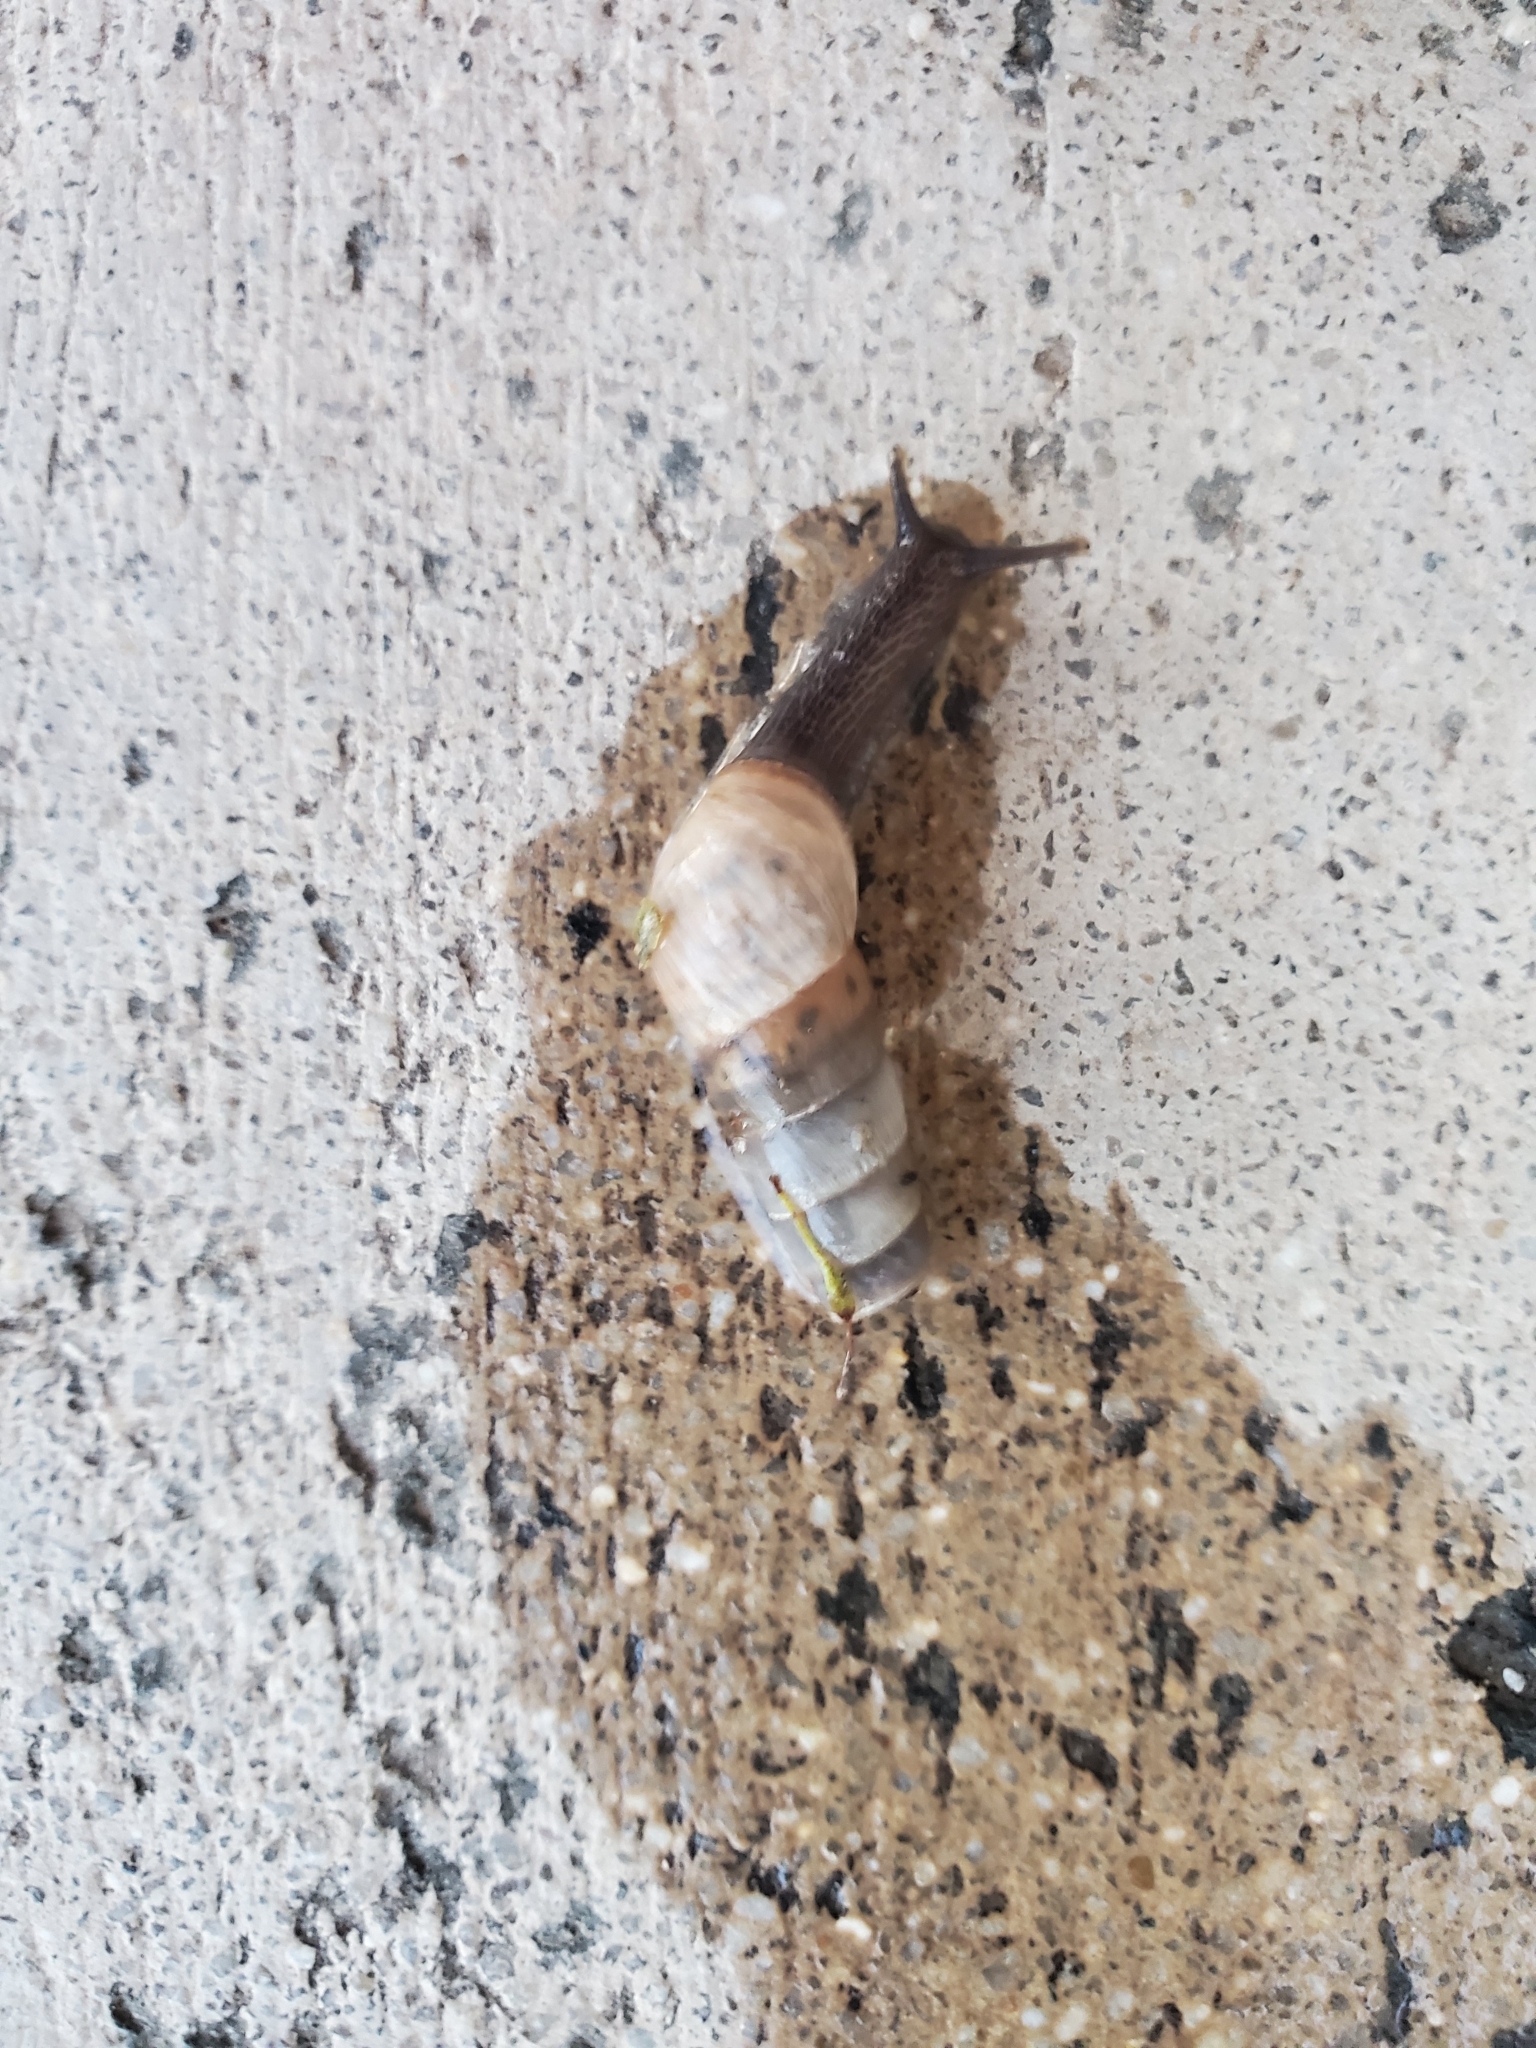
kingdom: Animalia
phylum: Mollusca
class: Gastropoda
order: Stylommatophora
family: Achatinidae
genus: Rumina
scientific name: Rumina decollata
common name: Decollate snail
